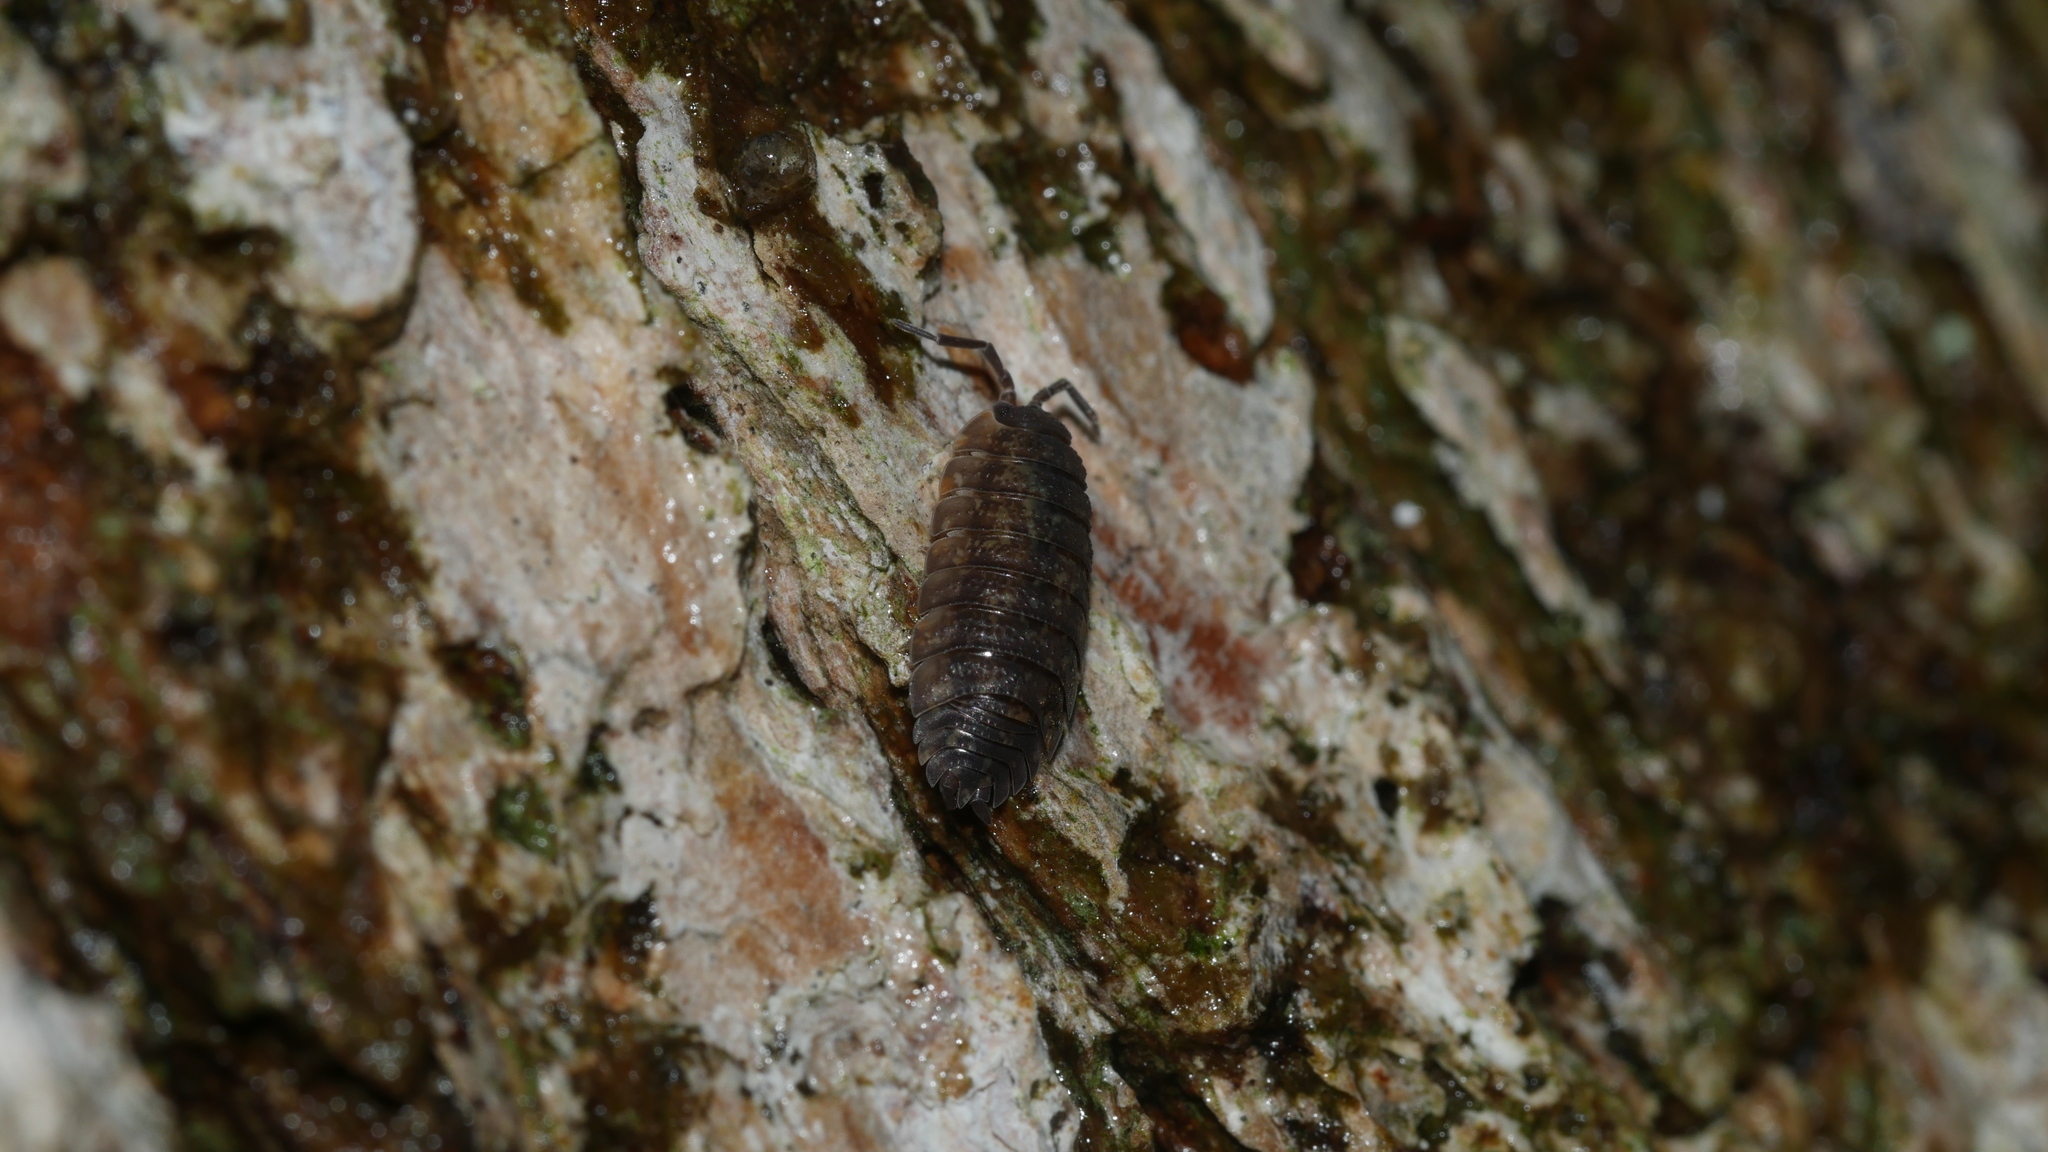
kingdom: Animalia
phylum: Arthropoda
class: Malacostraca
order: Isopoda
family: Porcellionidae
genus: Porcellio
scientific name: Porcellio scaber
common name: Common rough woodlouse
